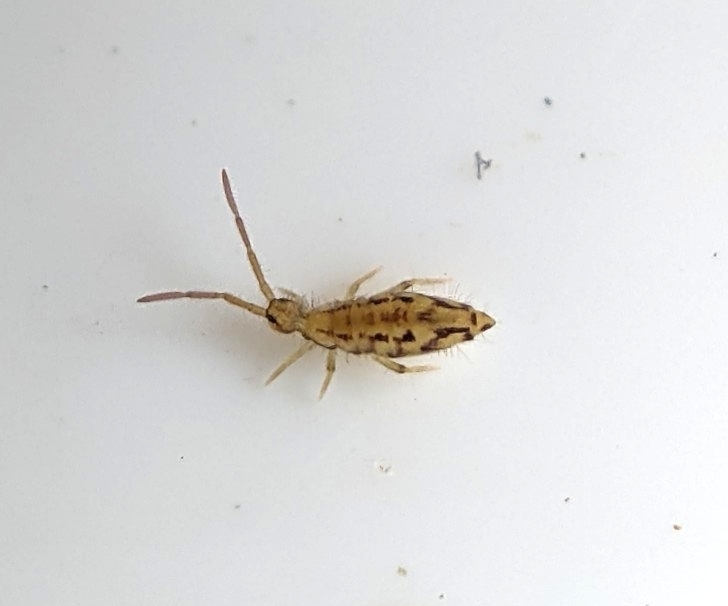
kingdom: Animalia
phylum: Arthropoda
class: Collembola
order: Entomobryomorpha
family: Entomobryidae
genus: Entomobrya
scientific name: Entomobrya intermedia
